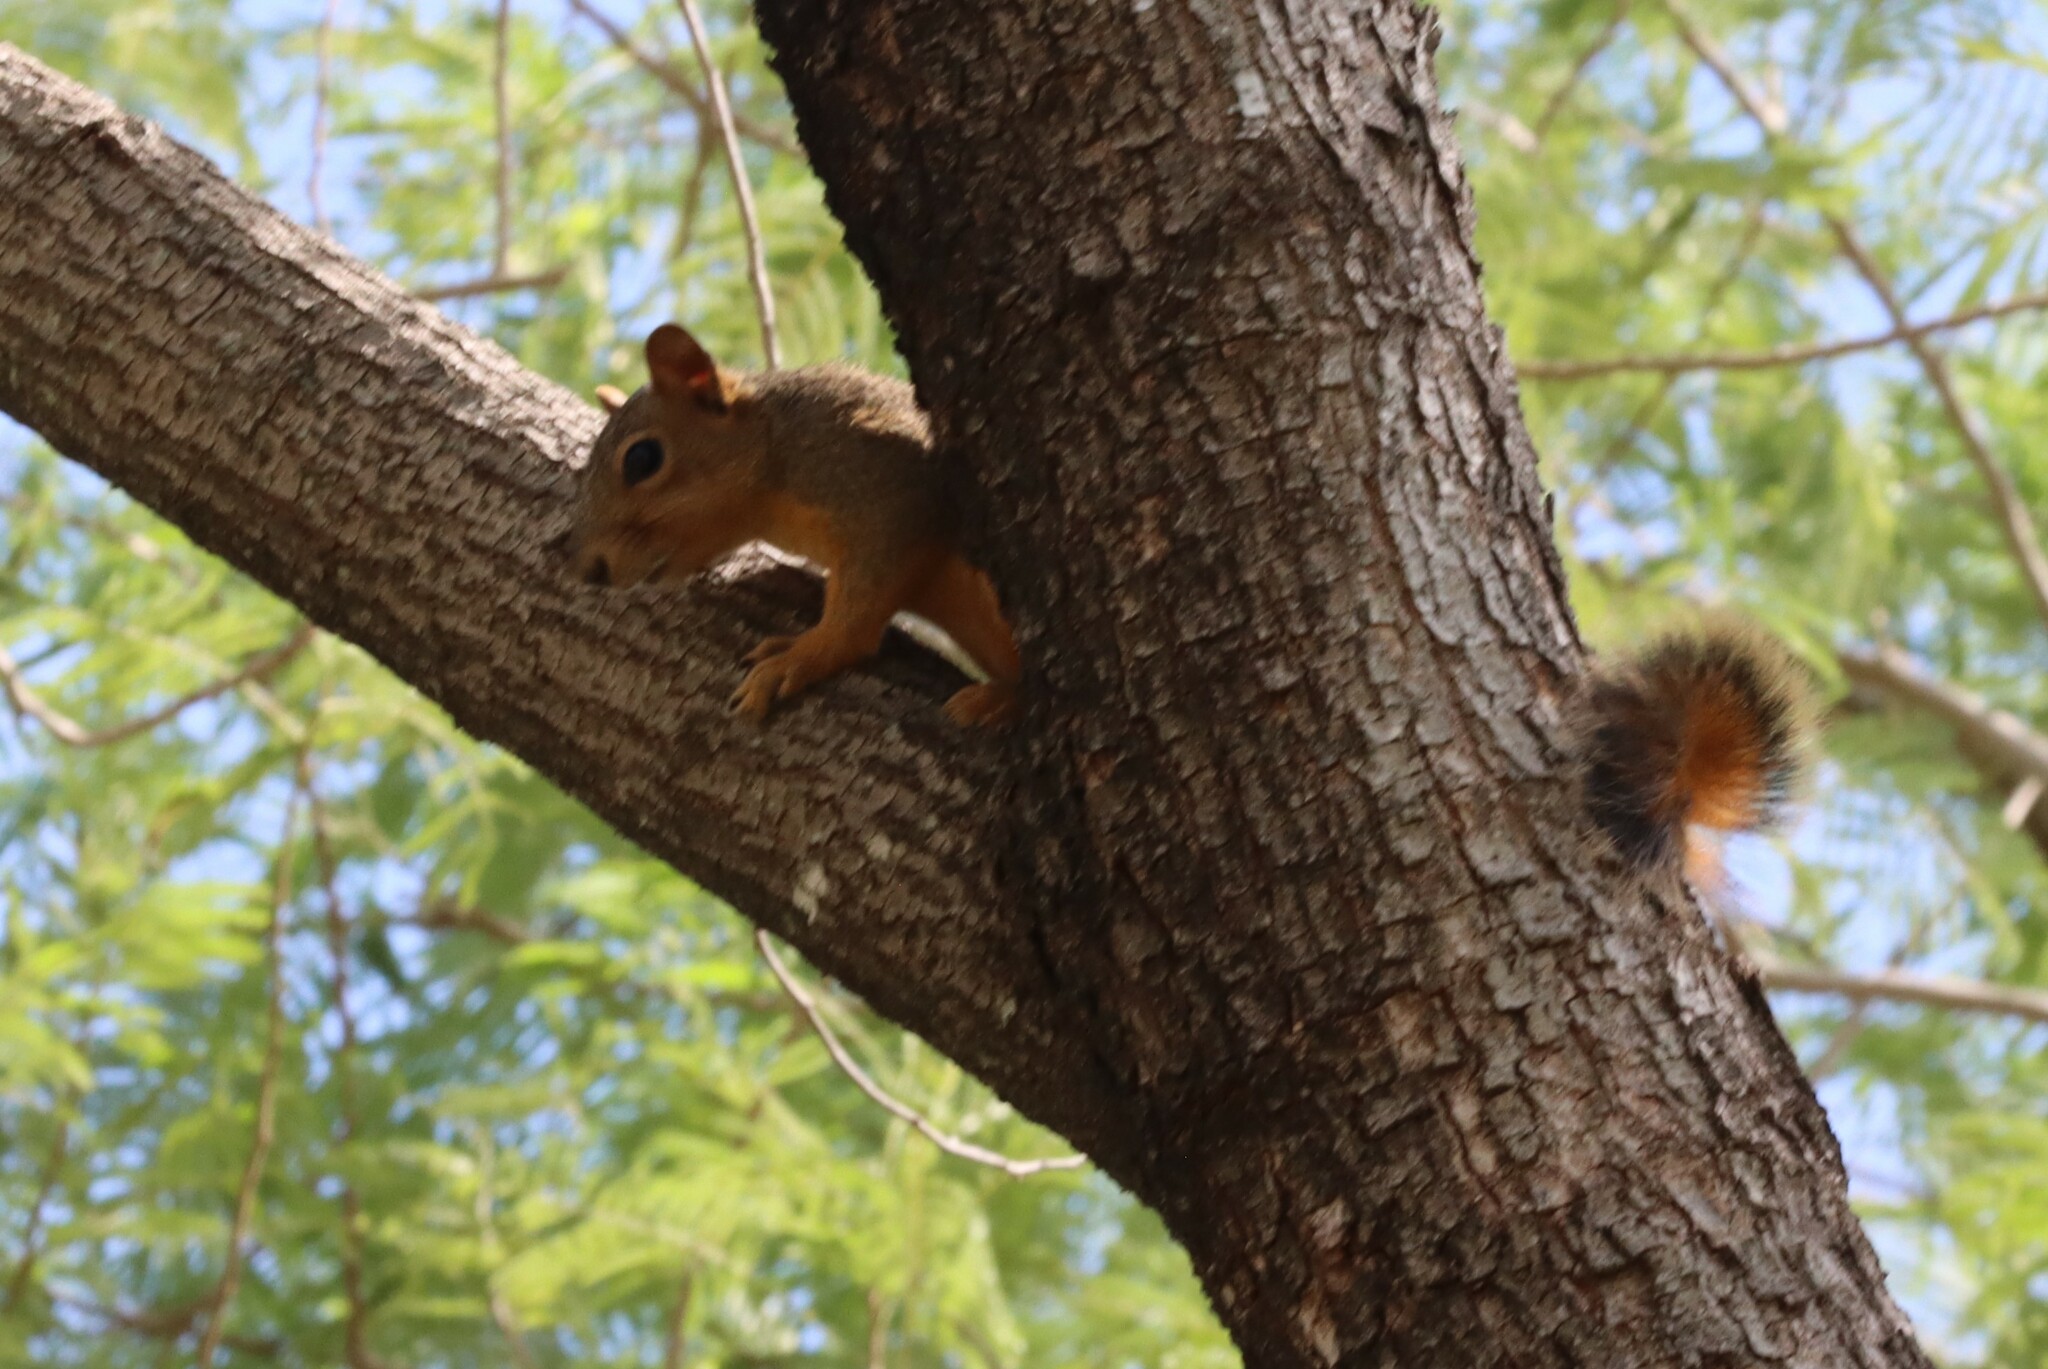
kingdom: Animalia
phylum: Chordata
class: Mammalia
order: Rodentia
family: Sciuridae
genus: Sciurus
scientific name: Sciurus niger
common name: Fox squirrel
